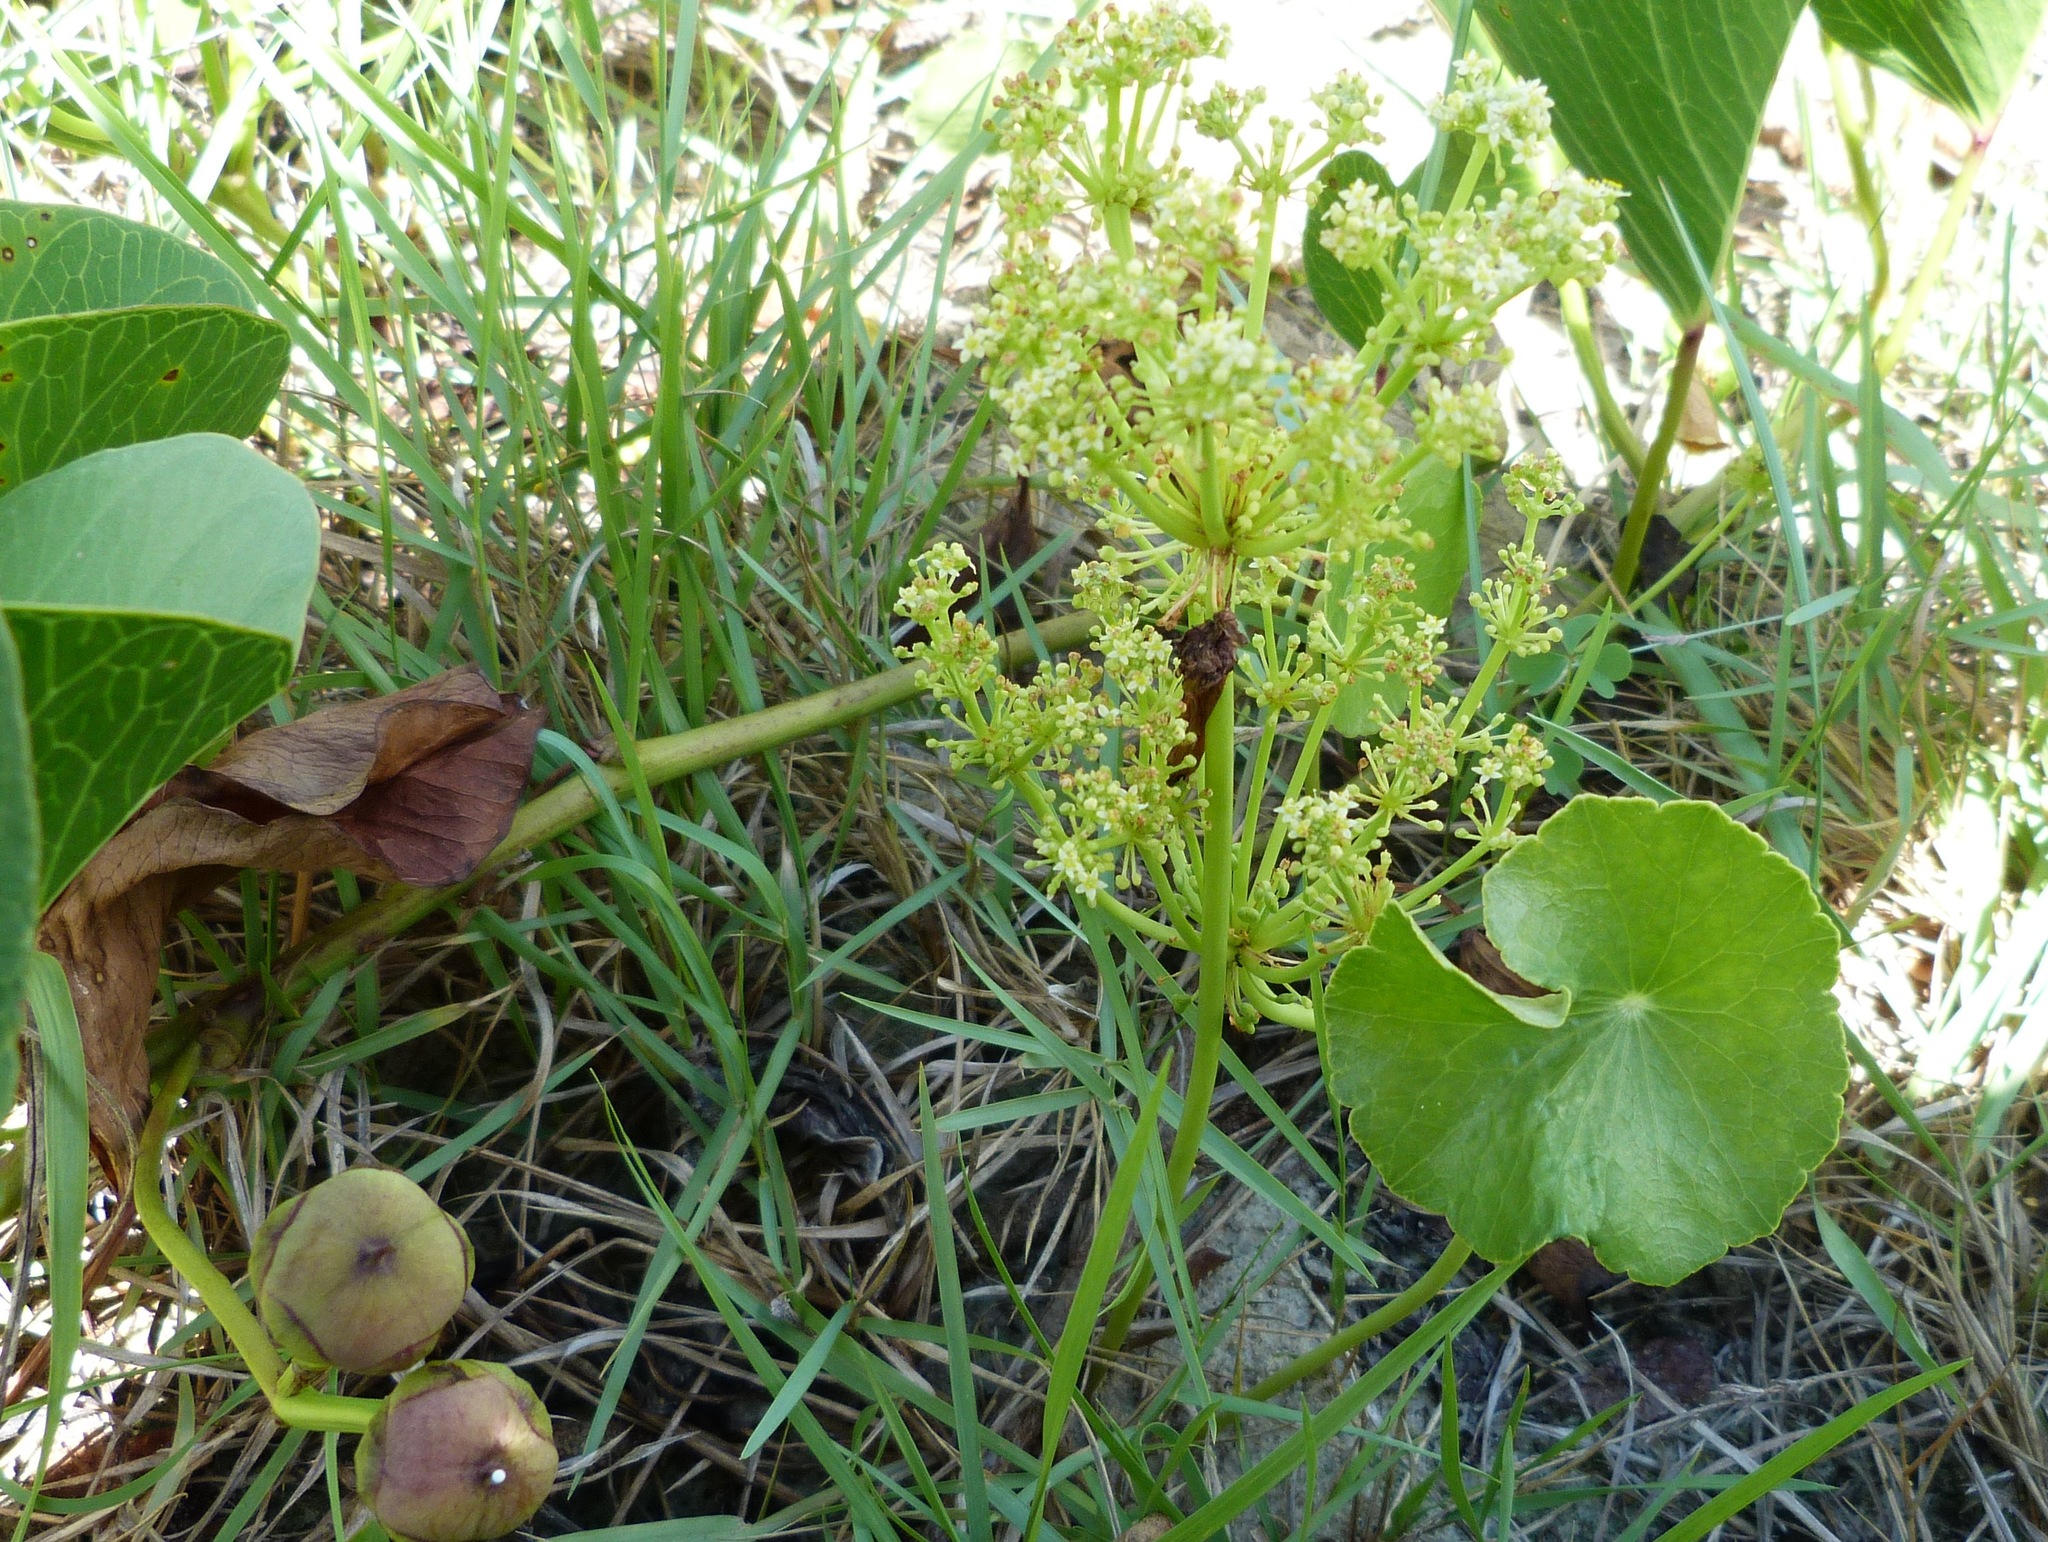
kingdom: Plantae
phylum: Tracheophyta
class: Magnoliopsida
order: Apiales
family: Araliaceae
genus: Hydrocotyle
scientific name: Hydrocotyle bonariensis
